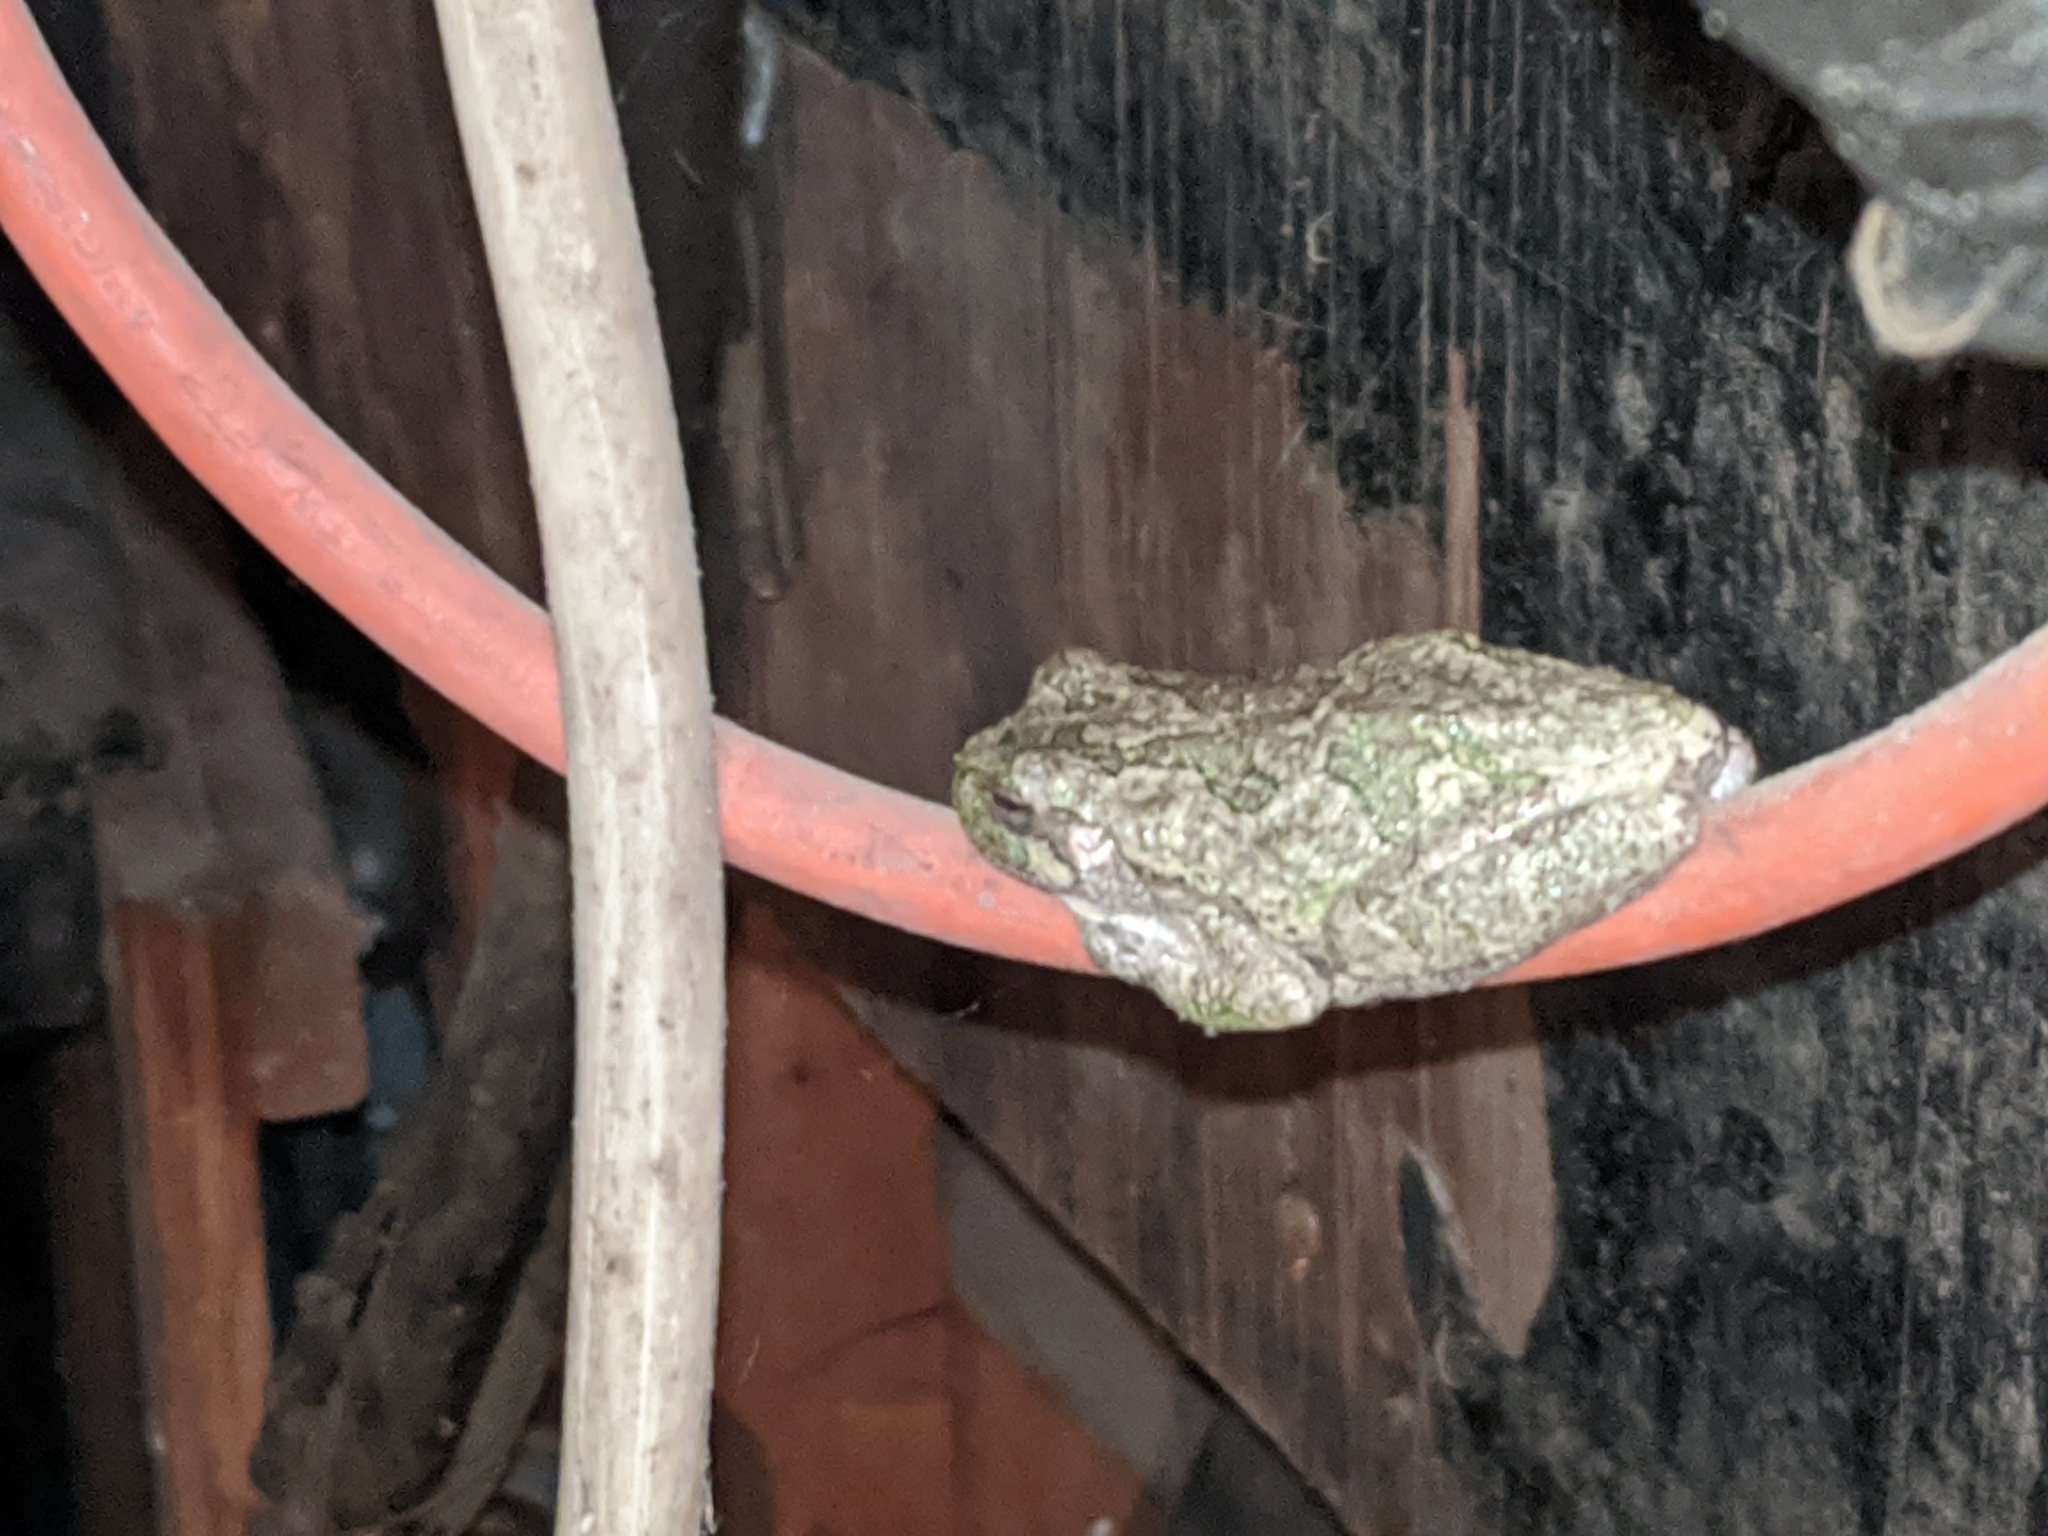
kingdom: Animalia
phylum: Chordata
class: Amphibia
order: Anura
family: Hylidae
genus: Hyla
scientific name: Hyla
